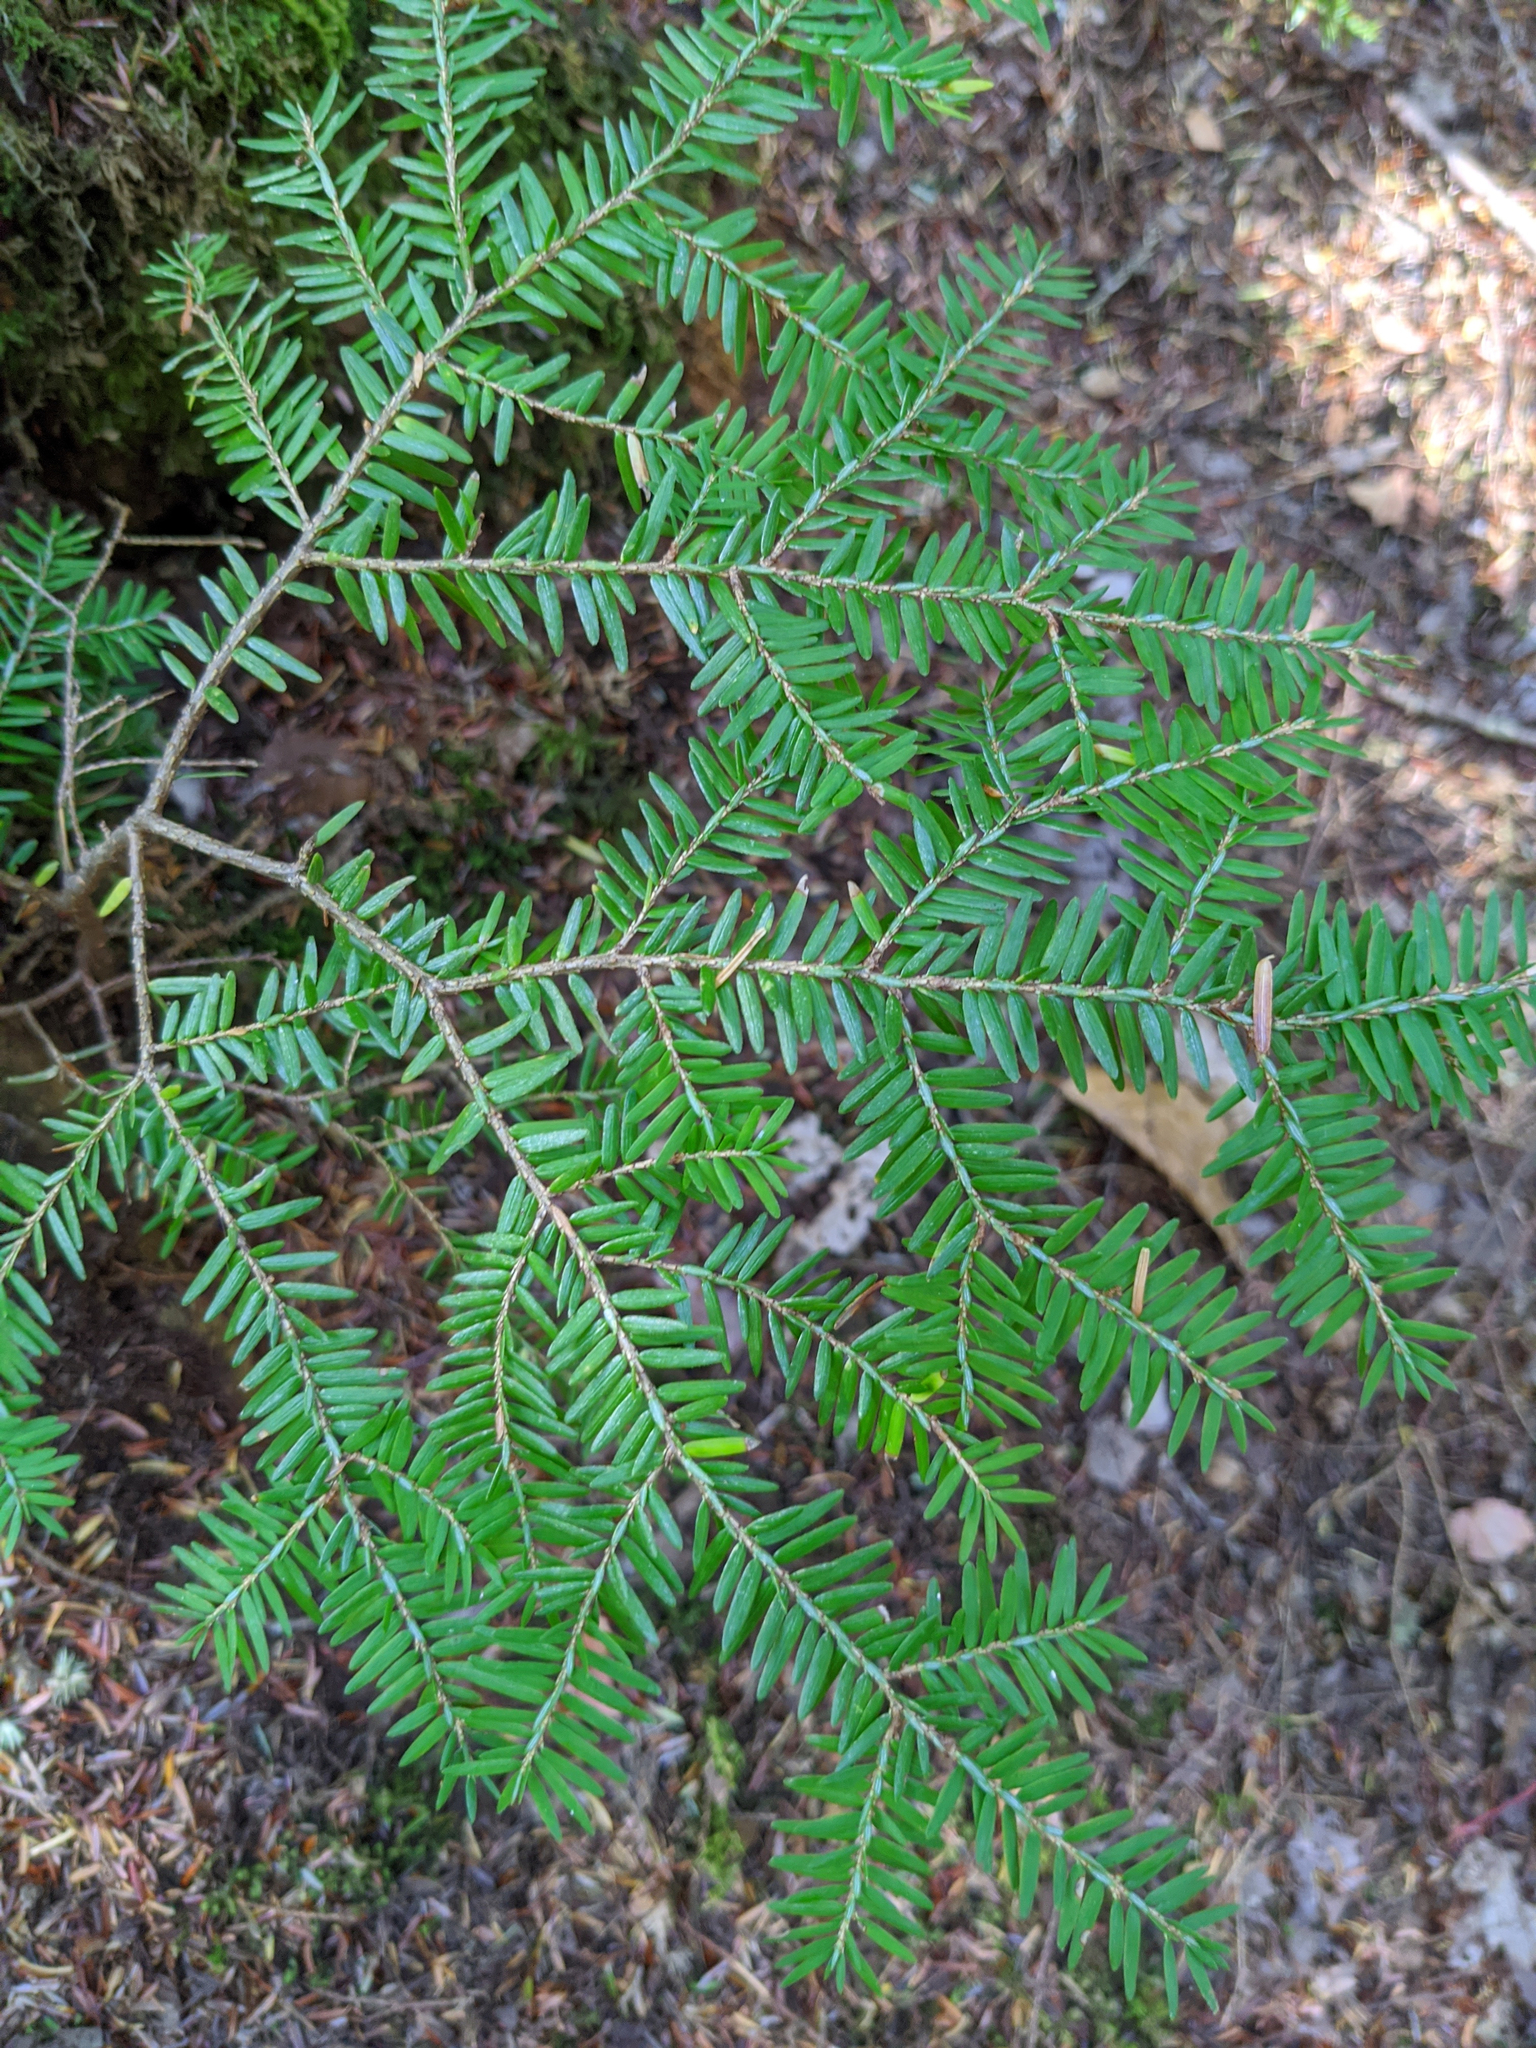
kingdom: Plantae
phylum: Tracheophyta
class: Pinopsida
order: Pinales
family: Pinaceae
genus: Tsuga
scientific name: Tsuga canadensis
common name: Eastern hemlock
